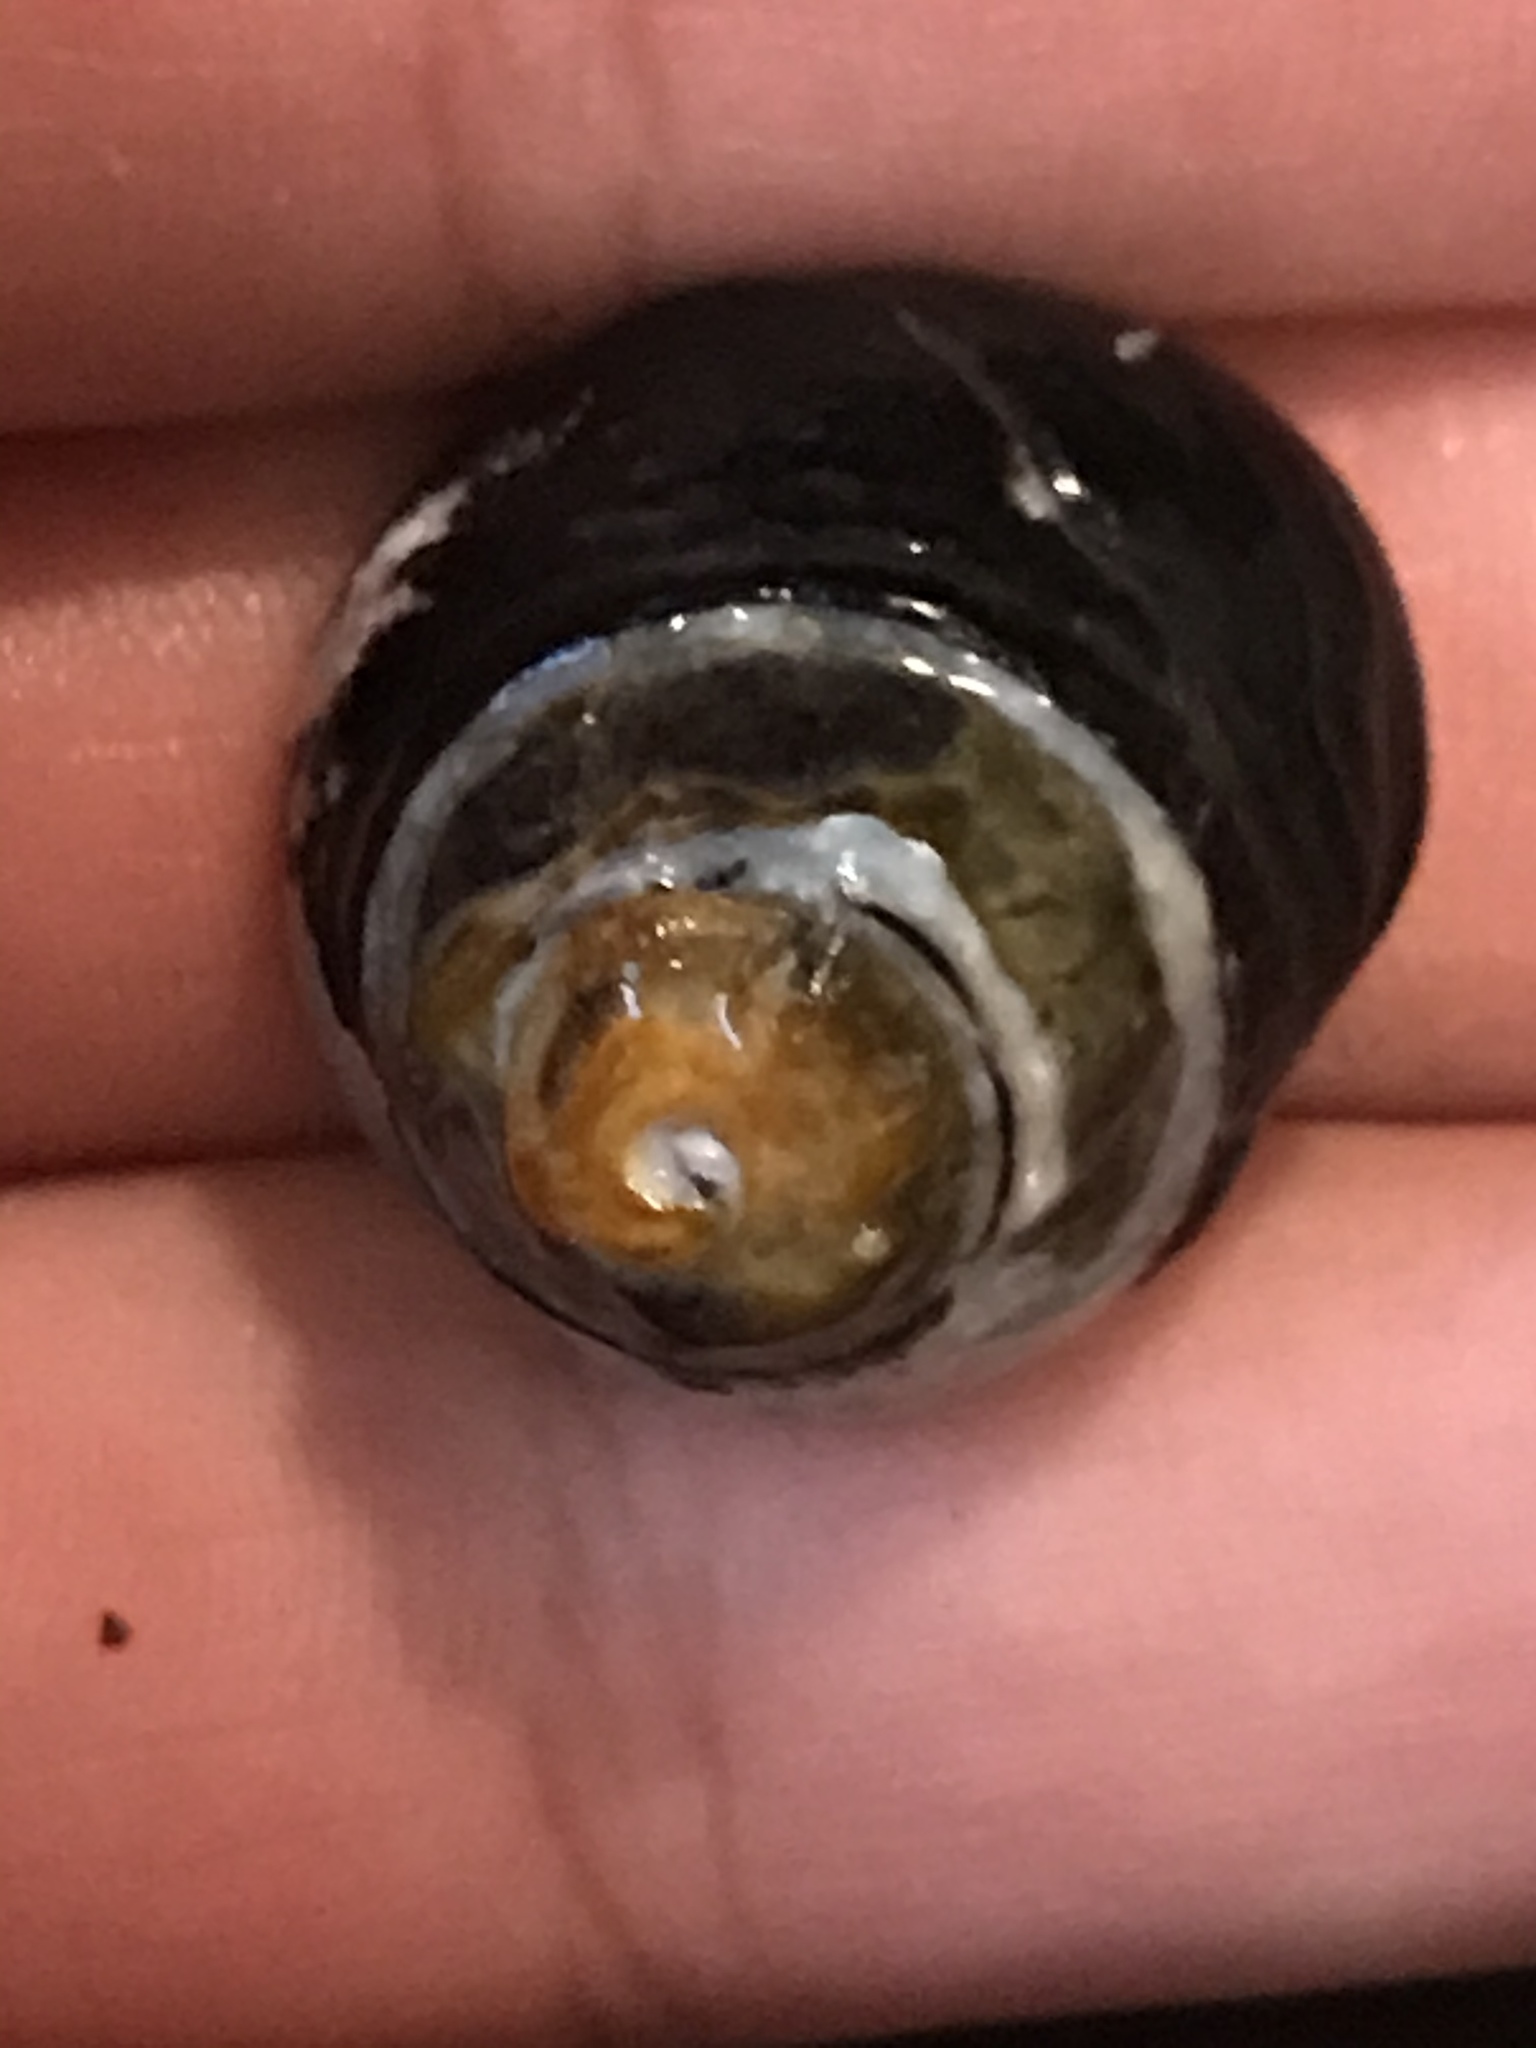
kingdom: Animalia
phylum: Mollusca
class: Gastropoda
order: Trochida
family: Tegulidae
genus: Tegula
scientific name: Tegula funebralis
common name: Black tegula
